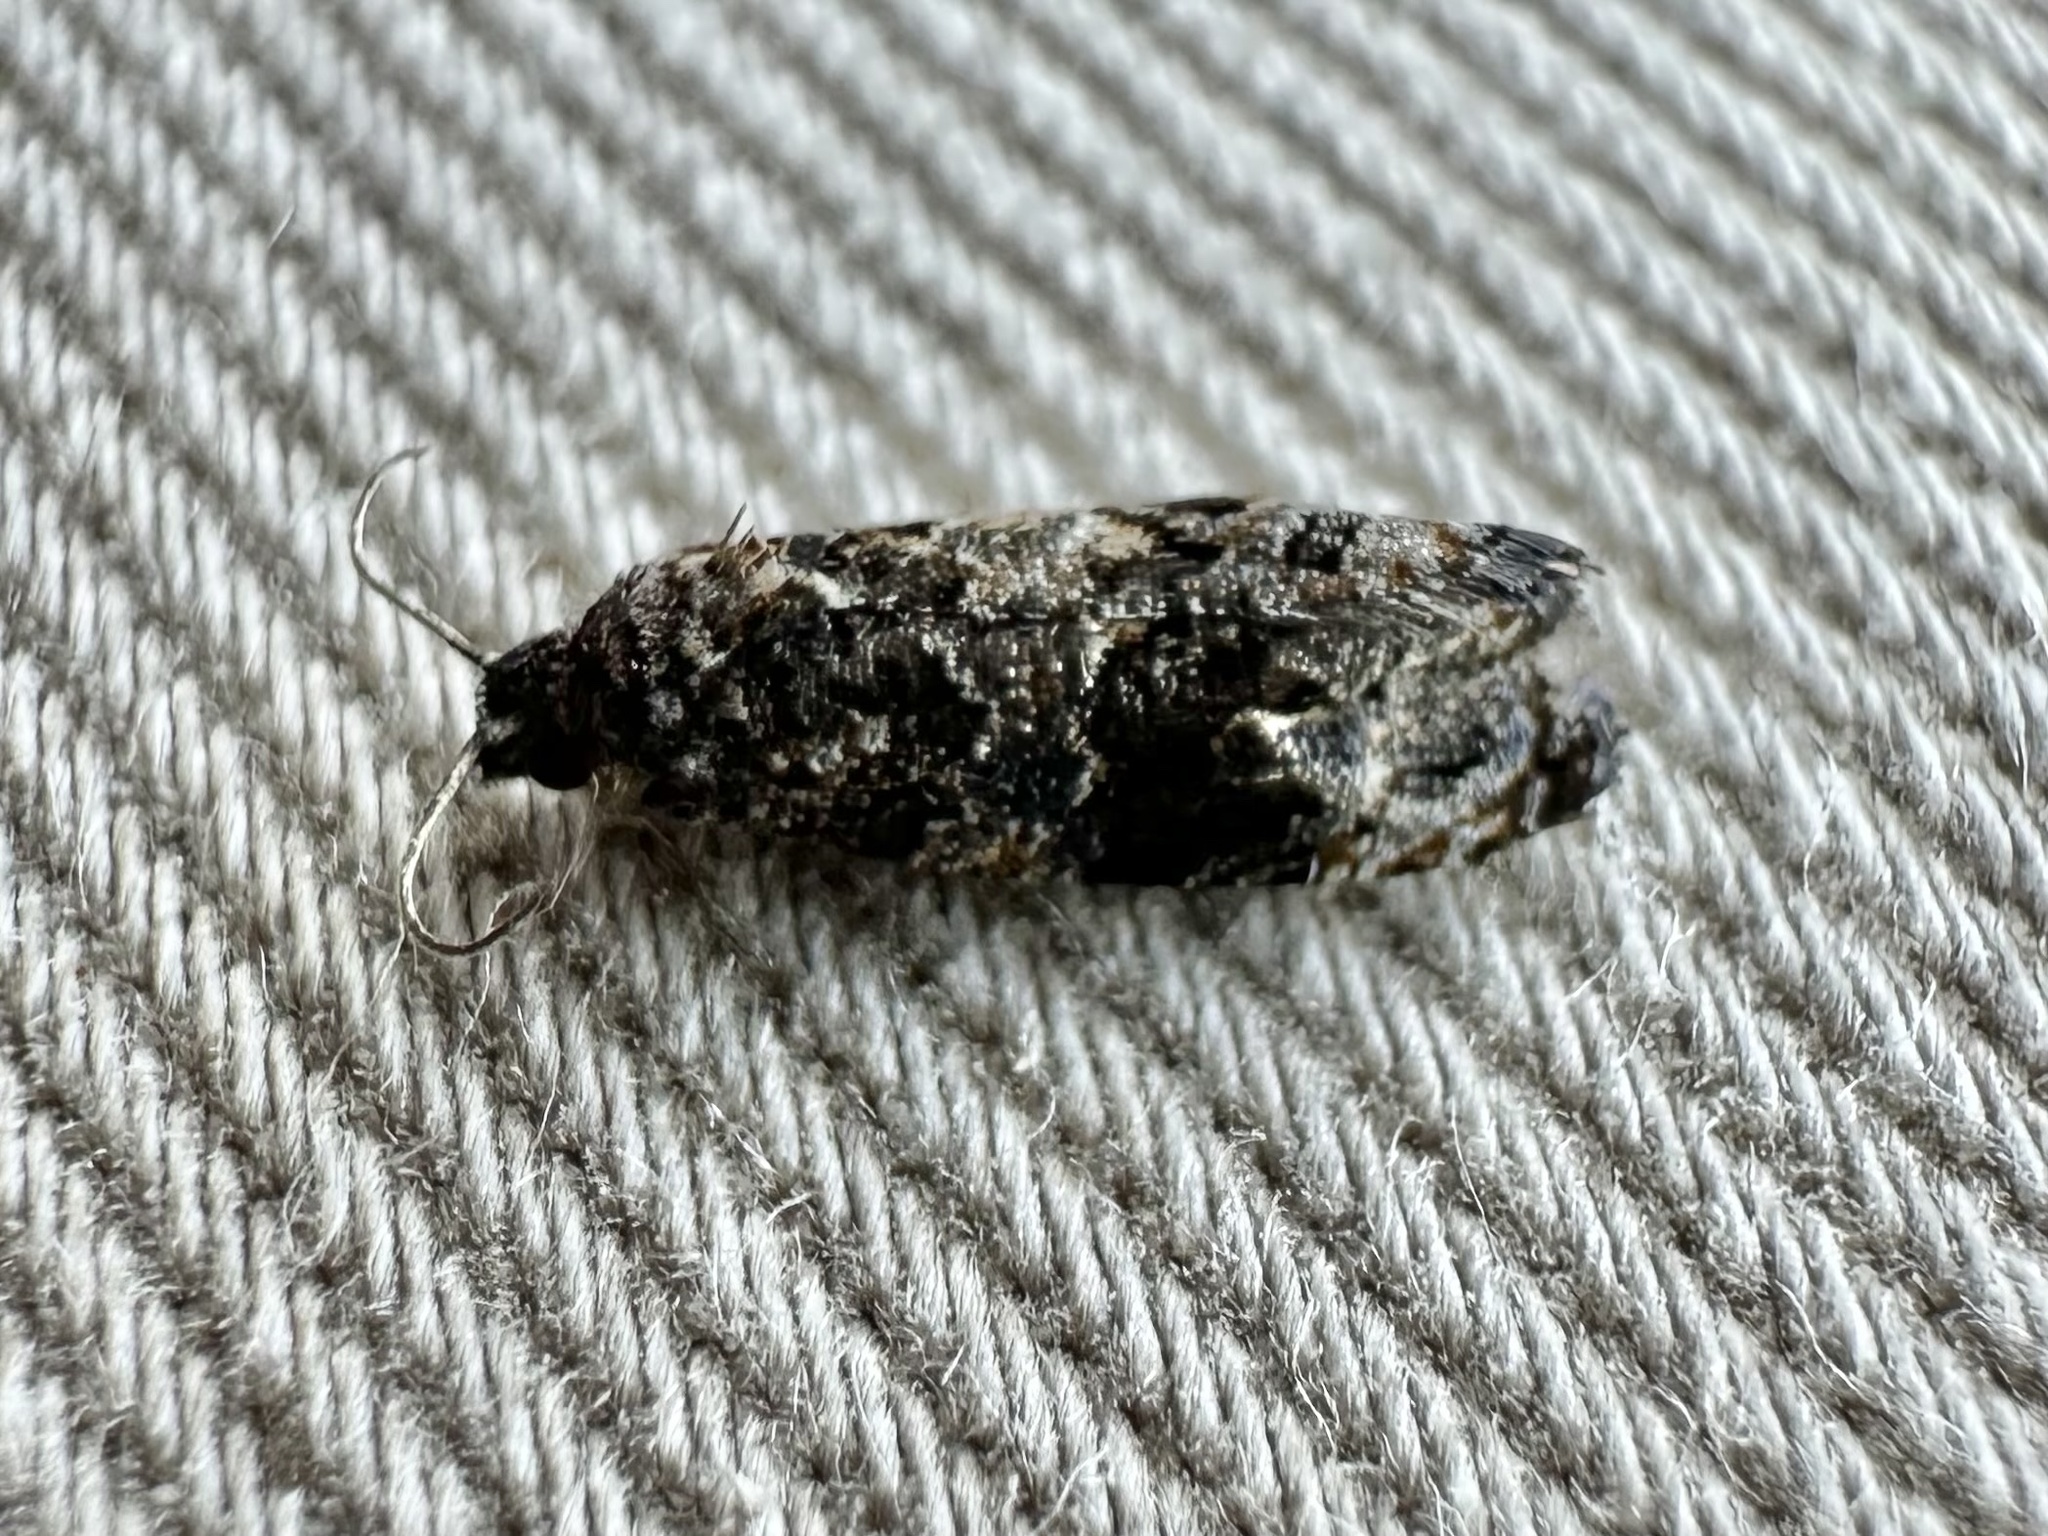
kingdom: Animalia
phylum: Arthropoda
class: Insecta
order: Lepidoptera
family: Tortricidae
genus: Endothenia
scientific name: Endothenia hebesana
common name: Verbena bud moth
